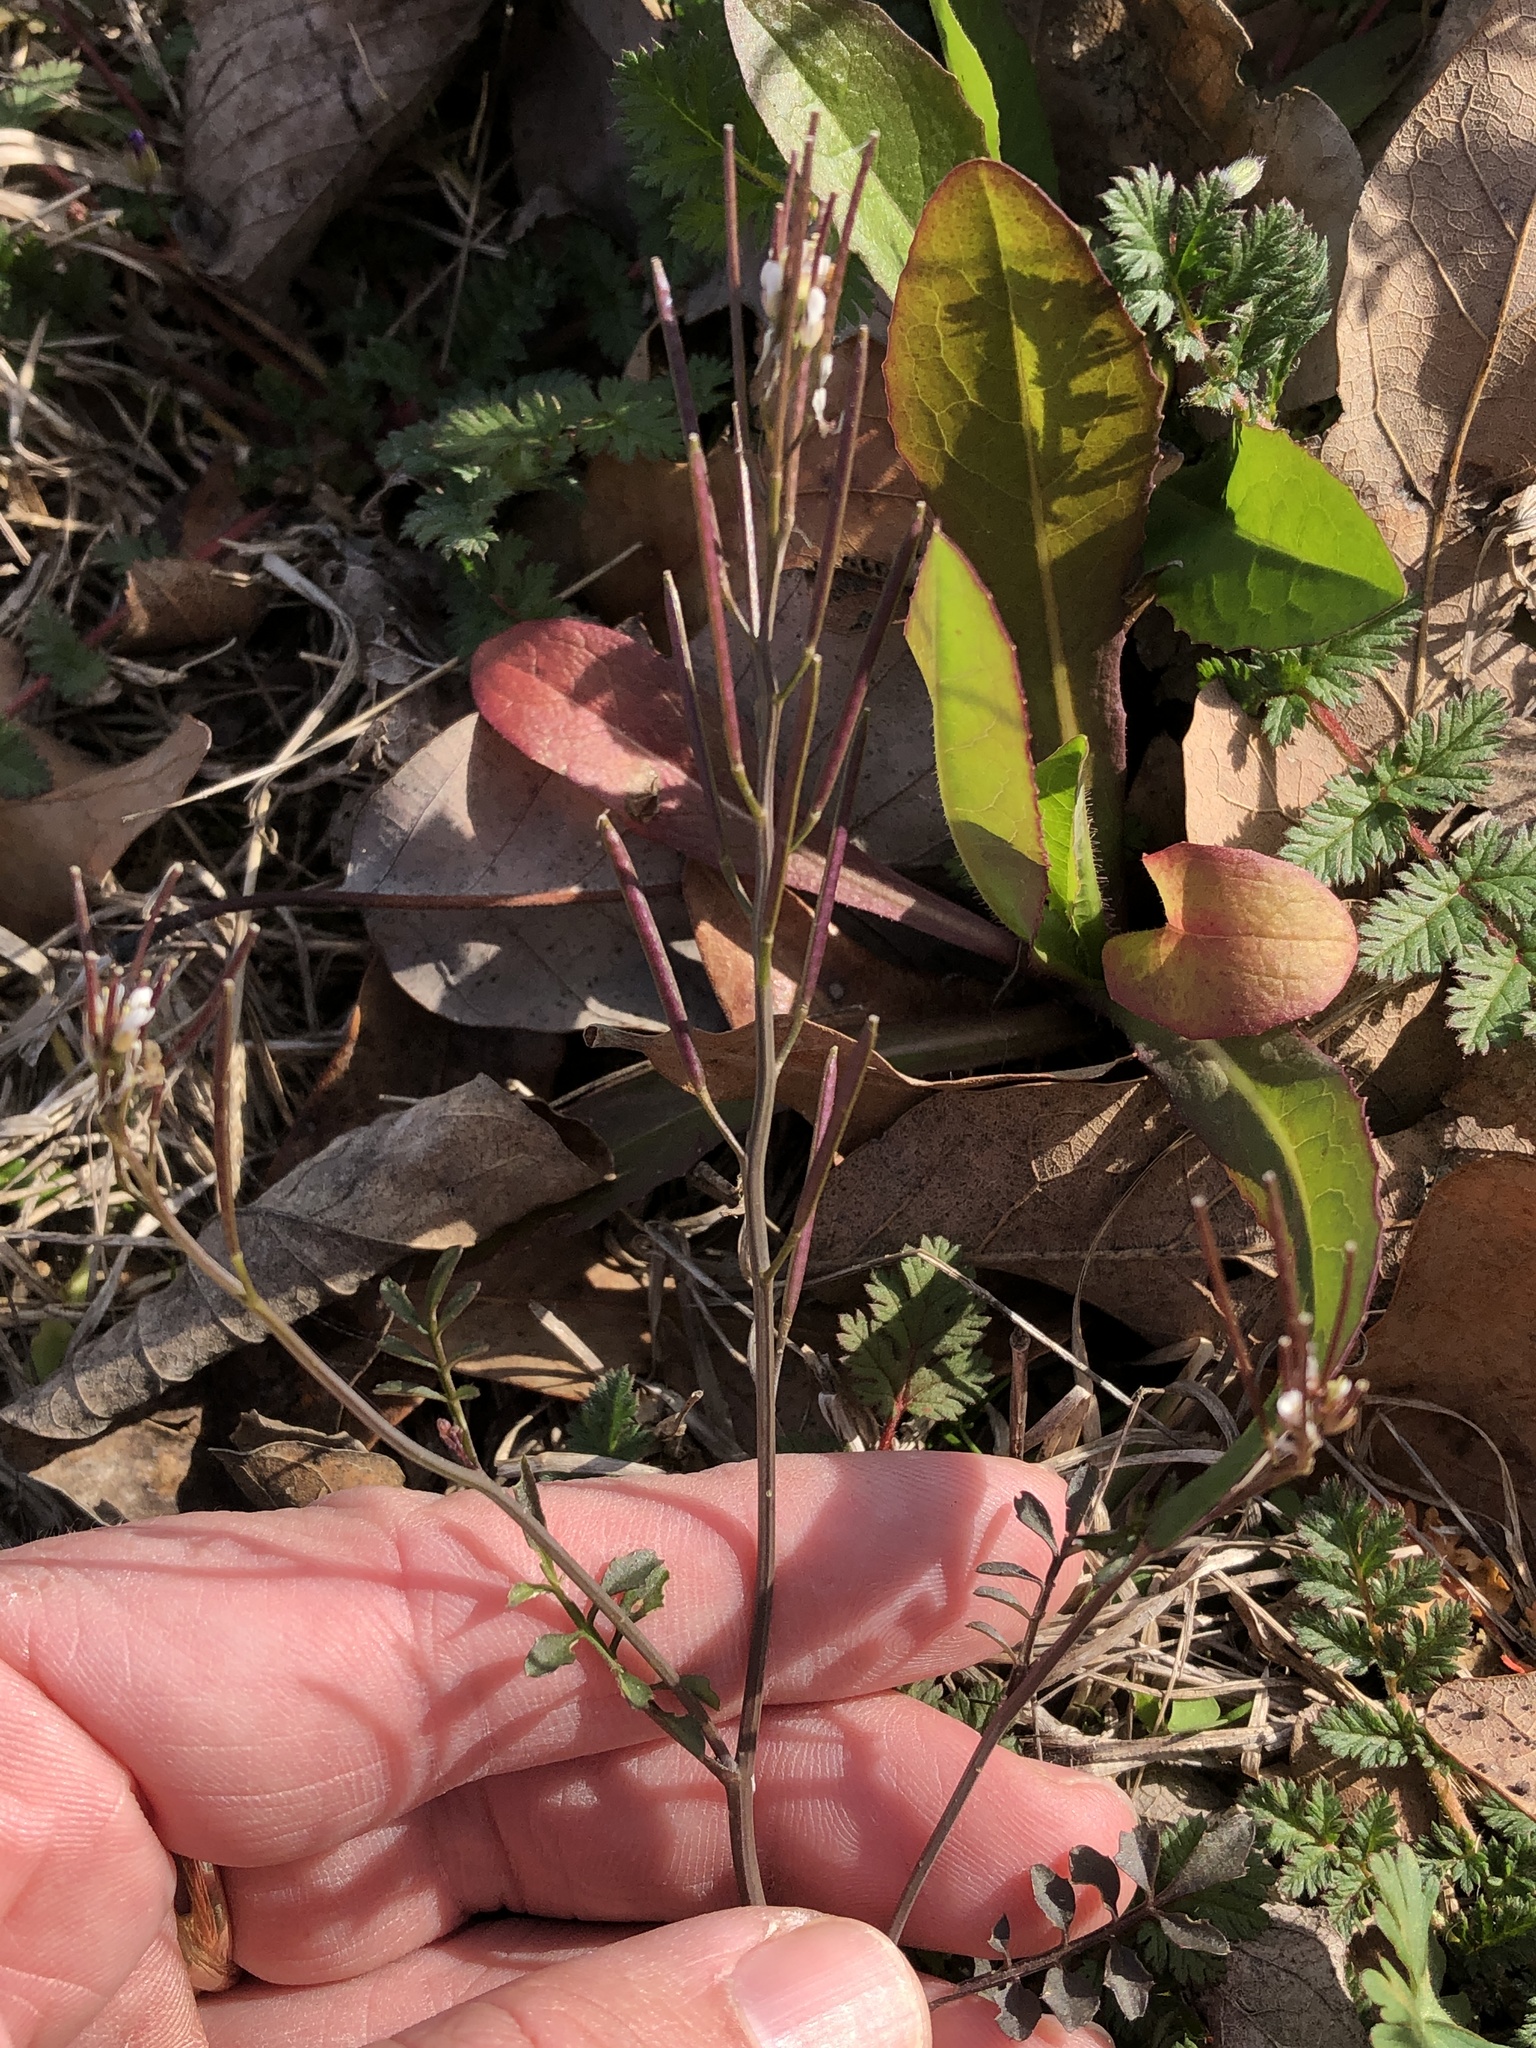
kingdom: Plantae
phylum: Tracheophyta
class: Magnoliopsida
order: Brassicales
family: Brassicaceae
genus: Cardamine
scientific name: Cardamine hirsuta
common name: Hairy bittercress
